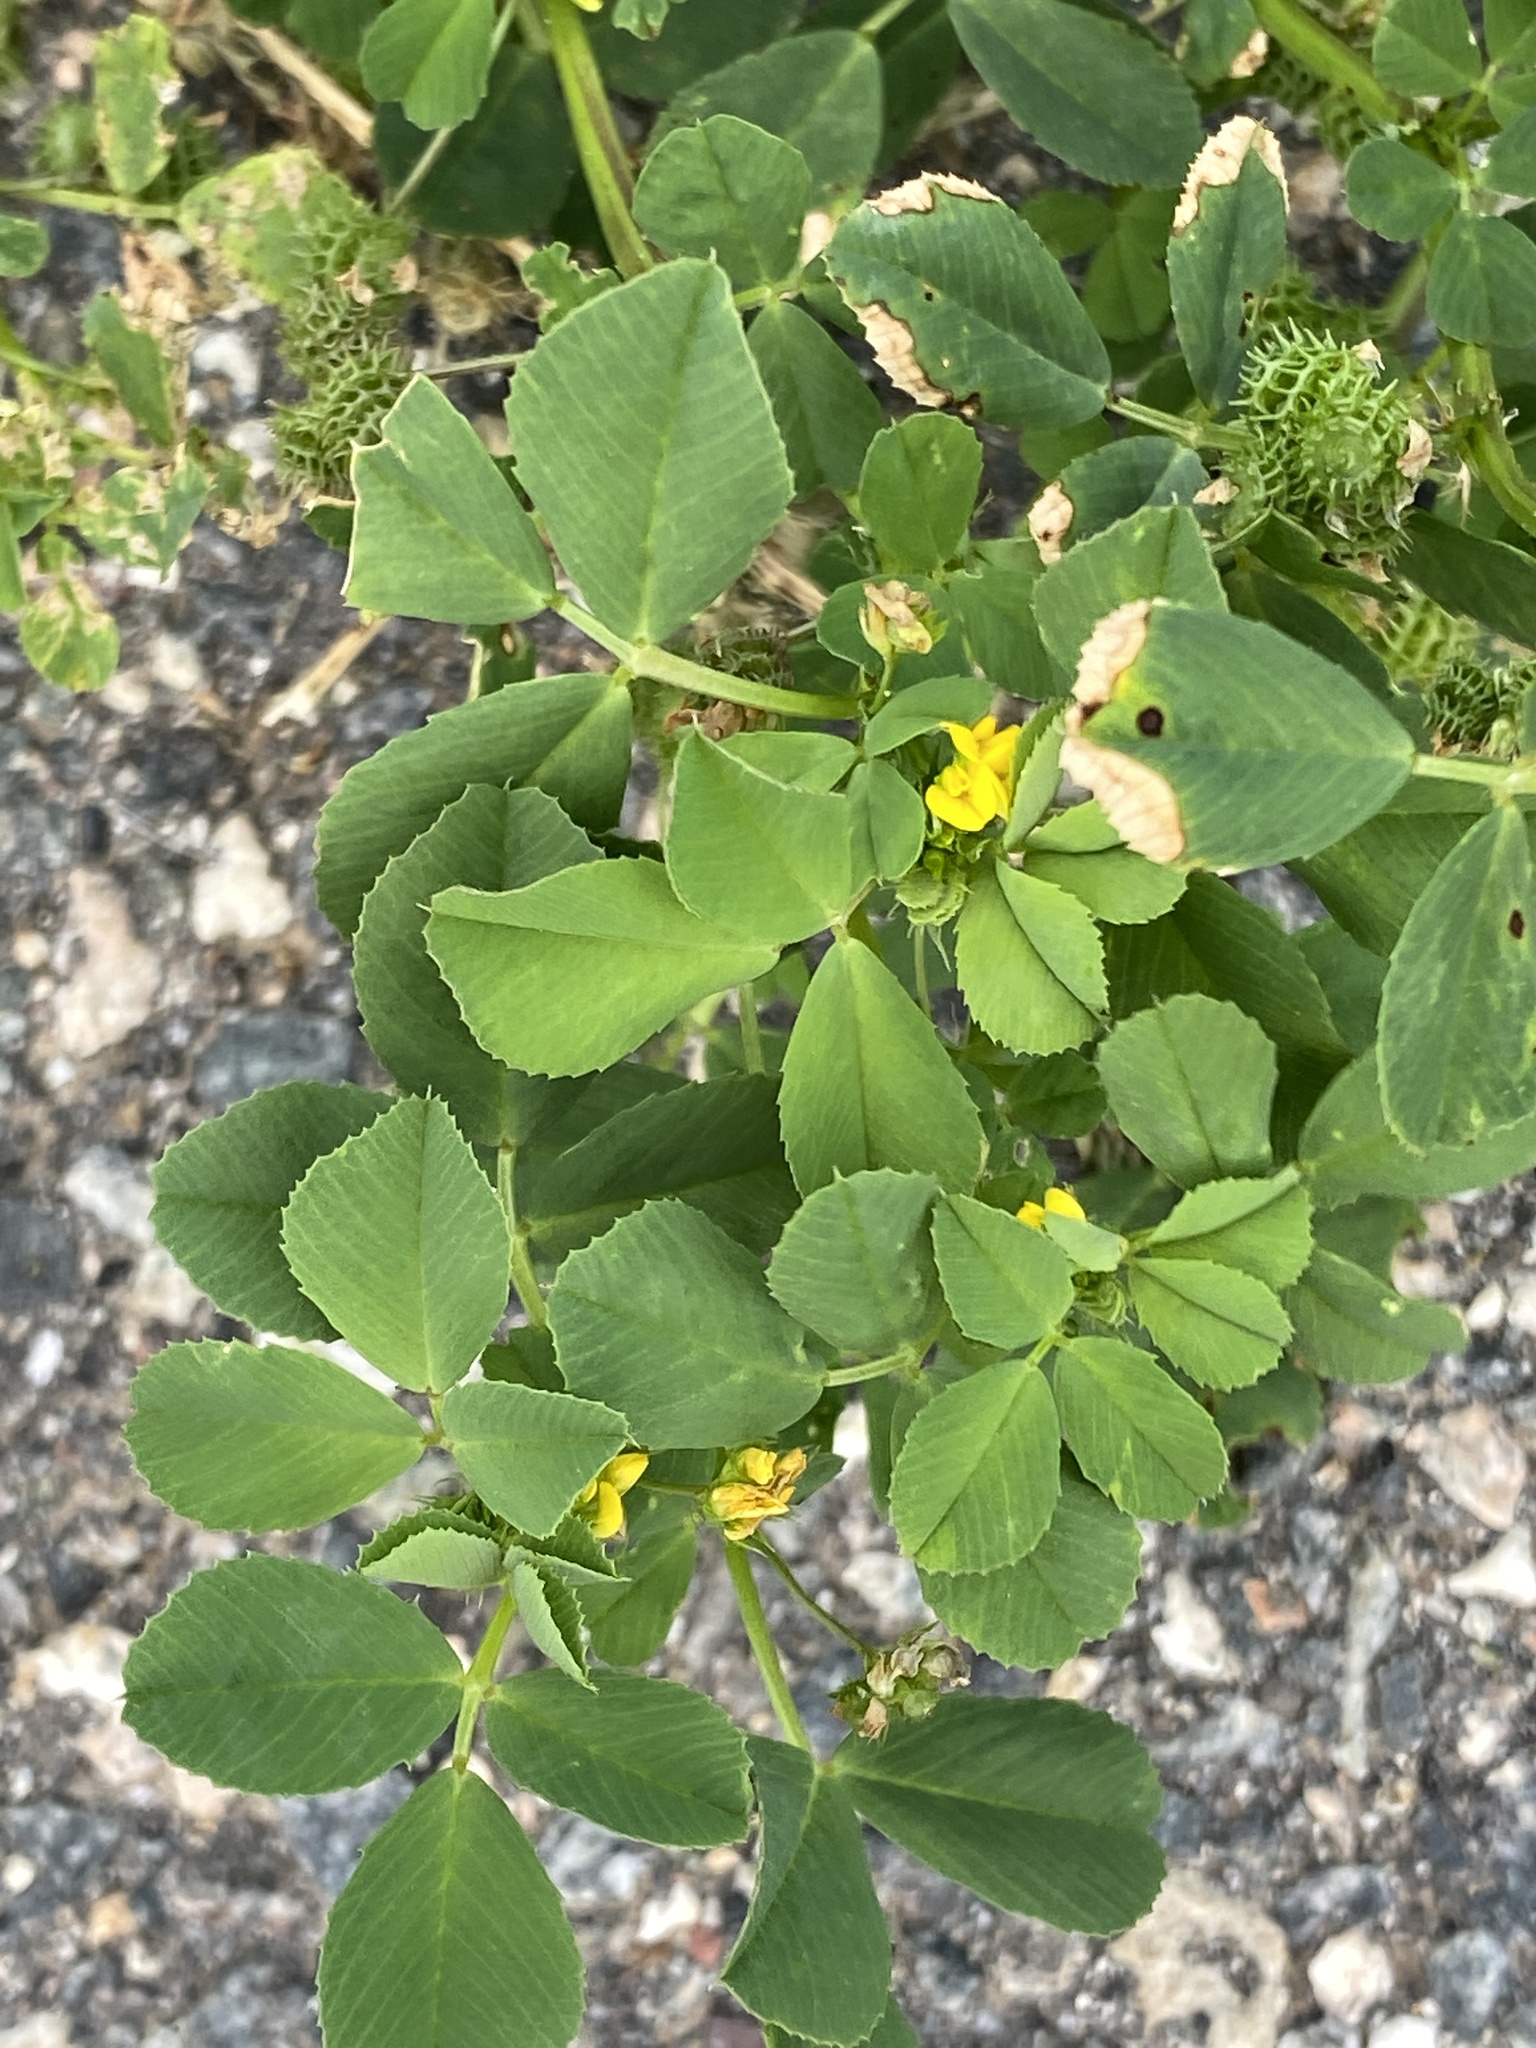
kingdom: Plantae
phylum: Tracheophyta
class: Magnoliopsida
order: Fabales
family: Fabaceae
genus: Medicago
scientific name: Medicago polymorpha
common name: Burclover
